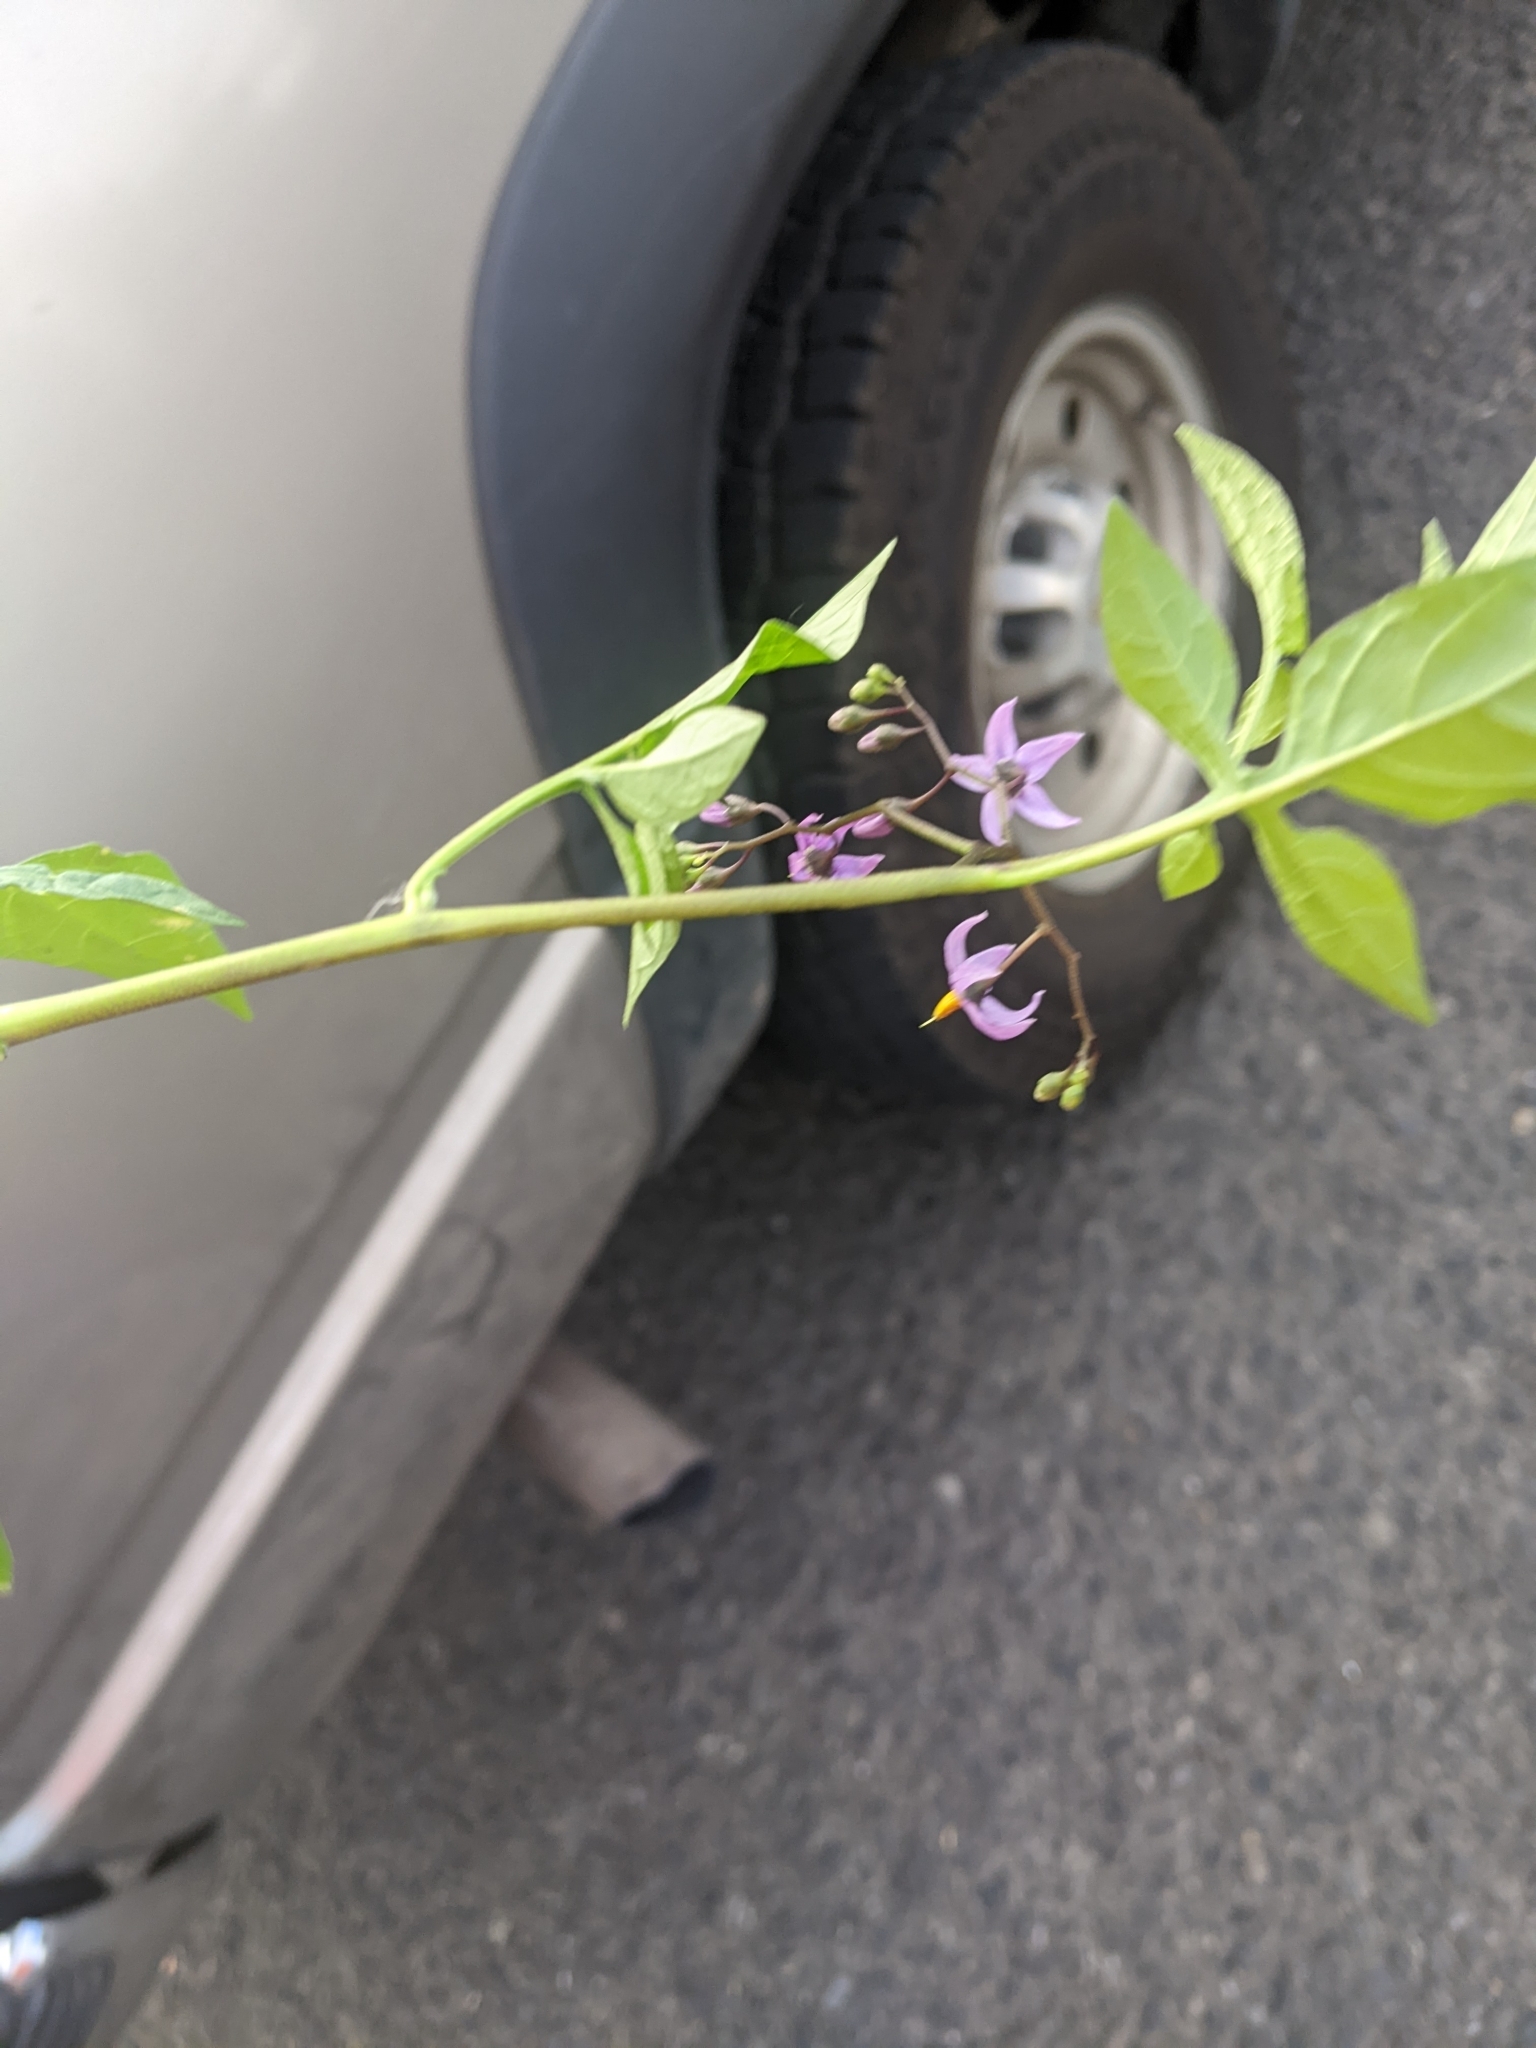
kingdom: Plantae
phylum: Tracheophyta
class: Magnoliopsida
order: Solanales
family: Solanaceae
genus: Solanum
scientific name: Solanum dulcamara
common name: Climbing nightshade
